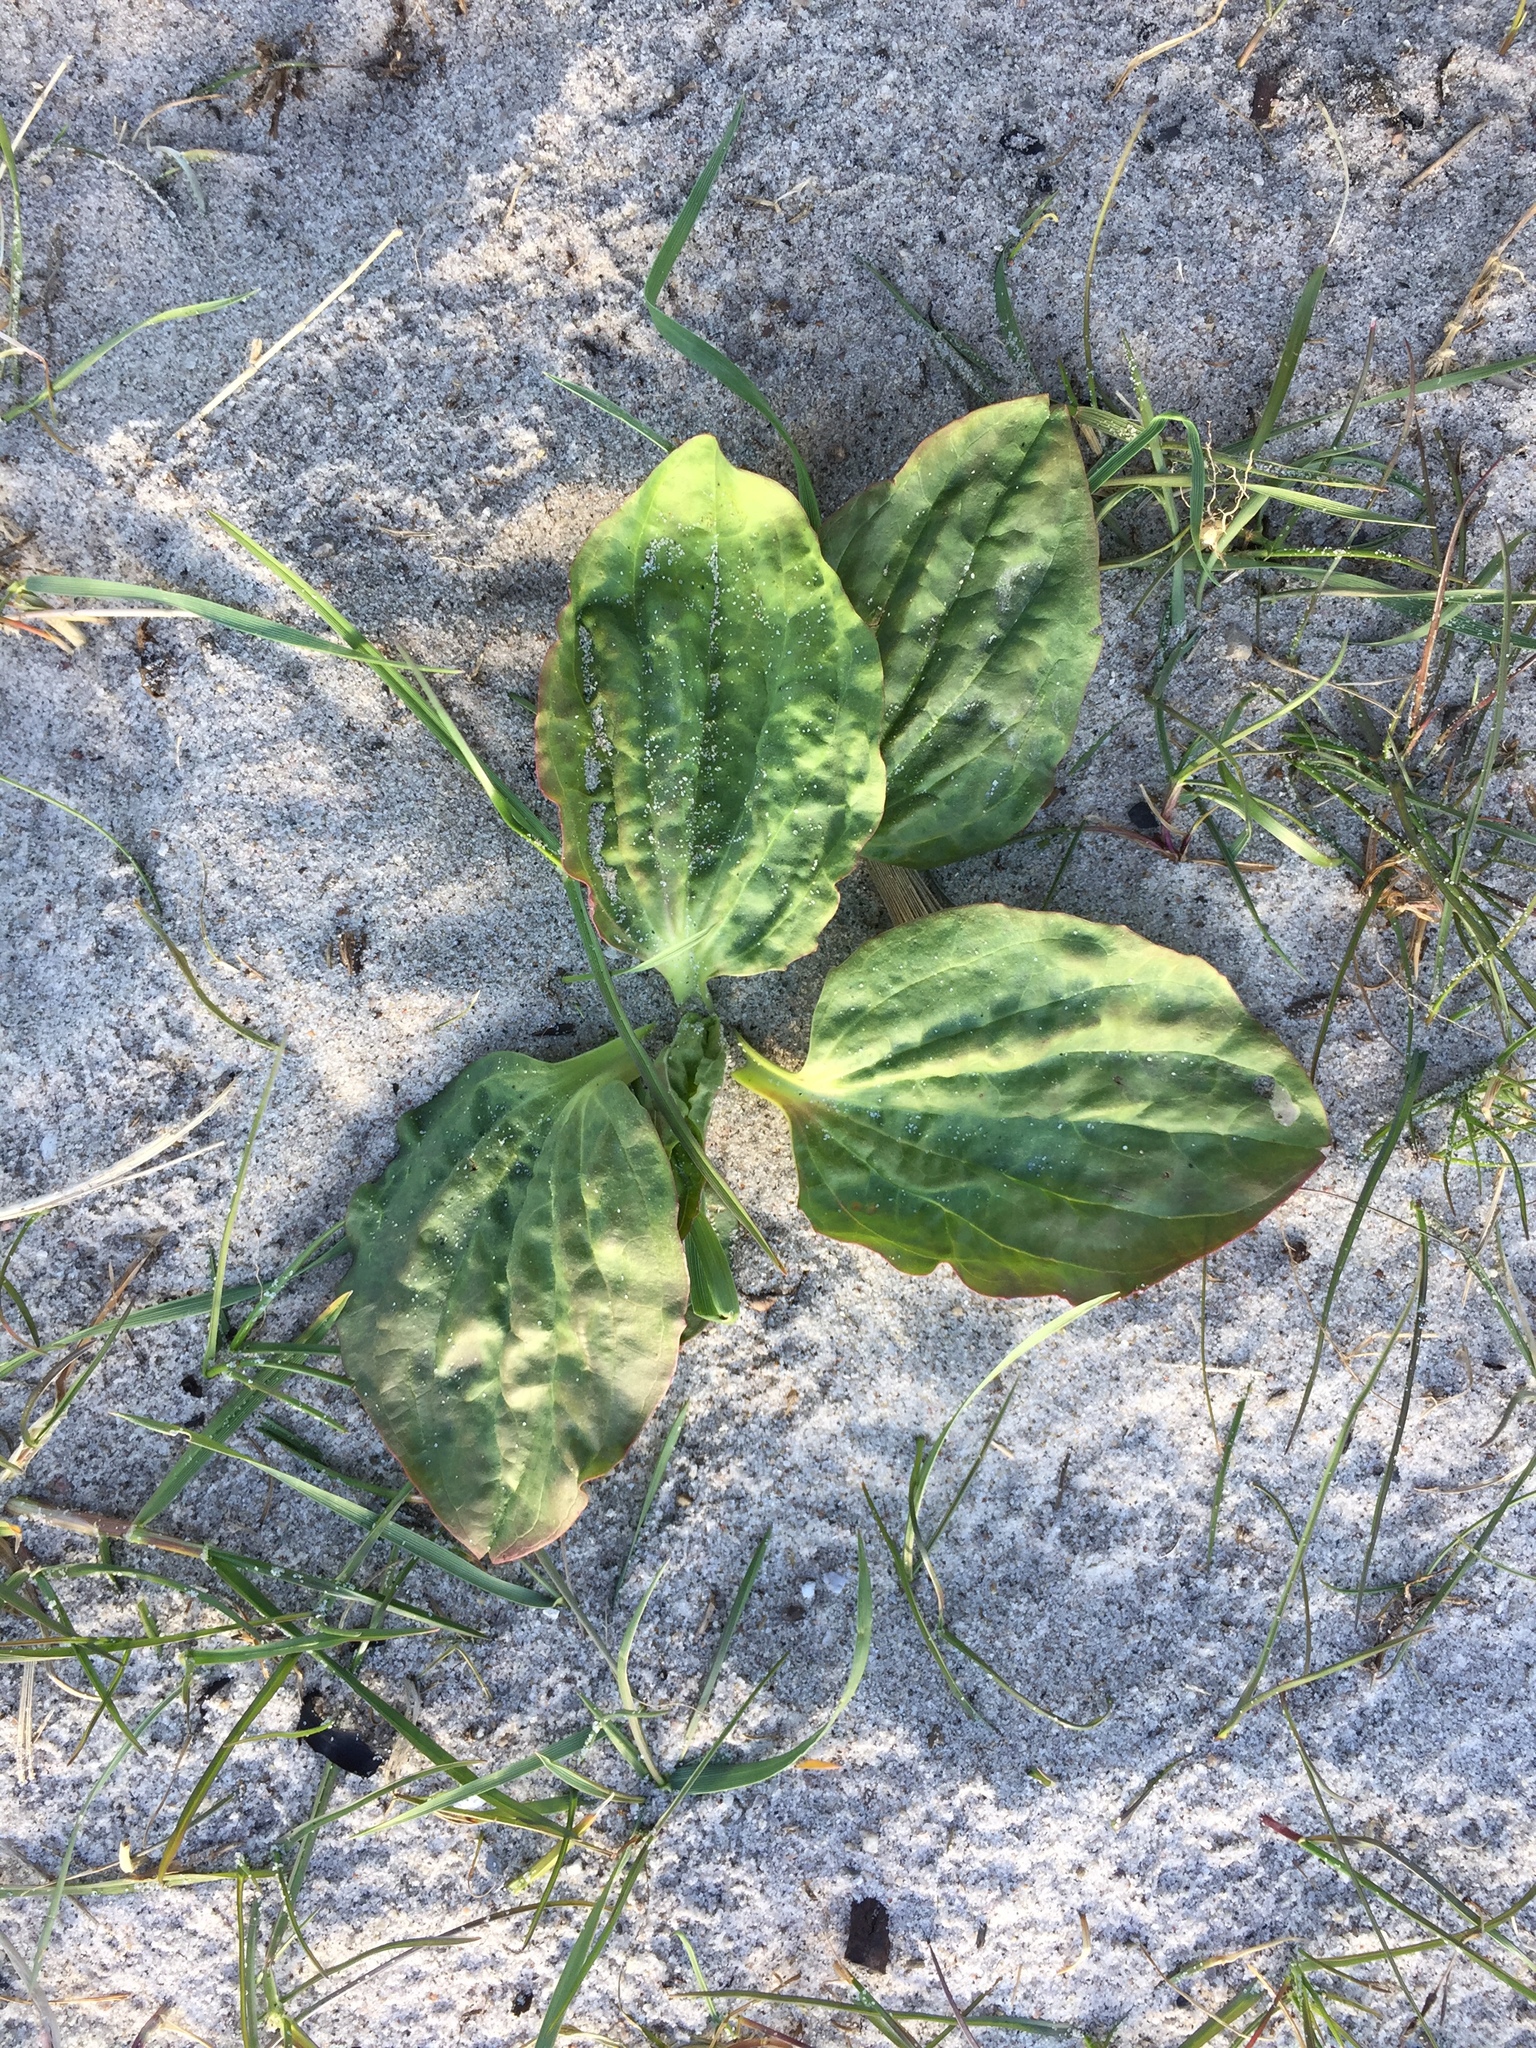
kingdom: Plantae
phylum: Tracheophyta
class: Magnoliopsida
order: Lamiales
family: Plantaginaceae
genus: Plantago
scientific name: Plantago major
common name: Common plantain
